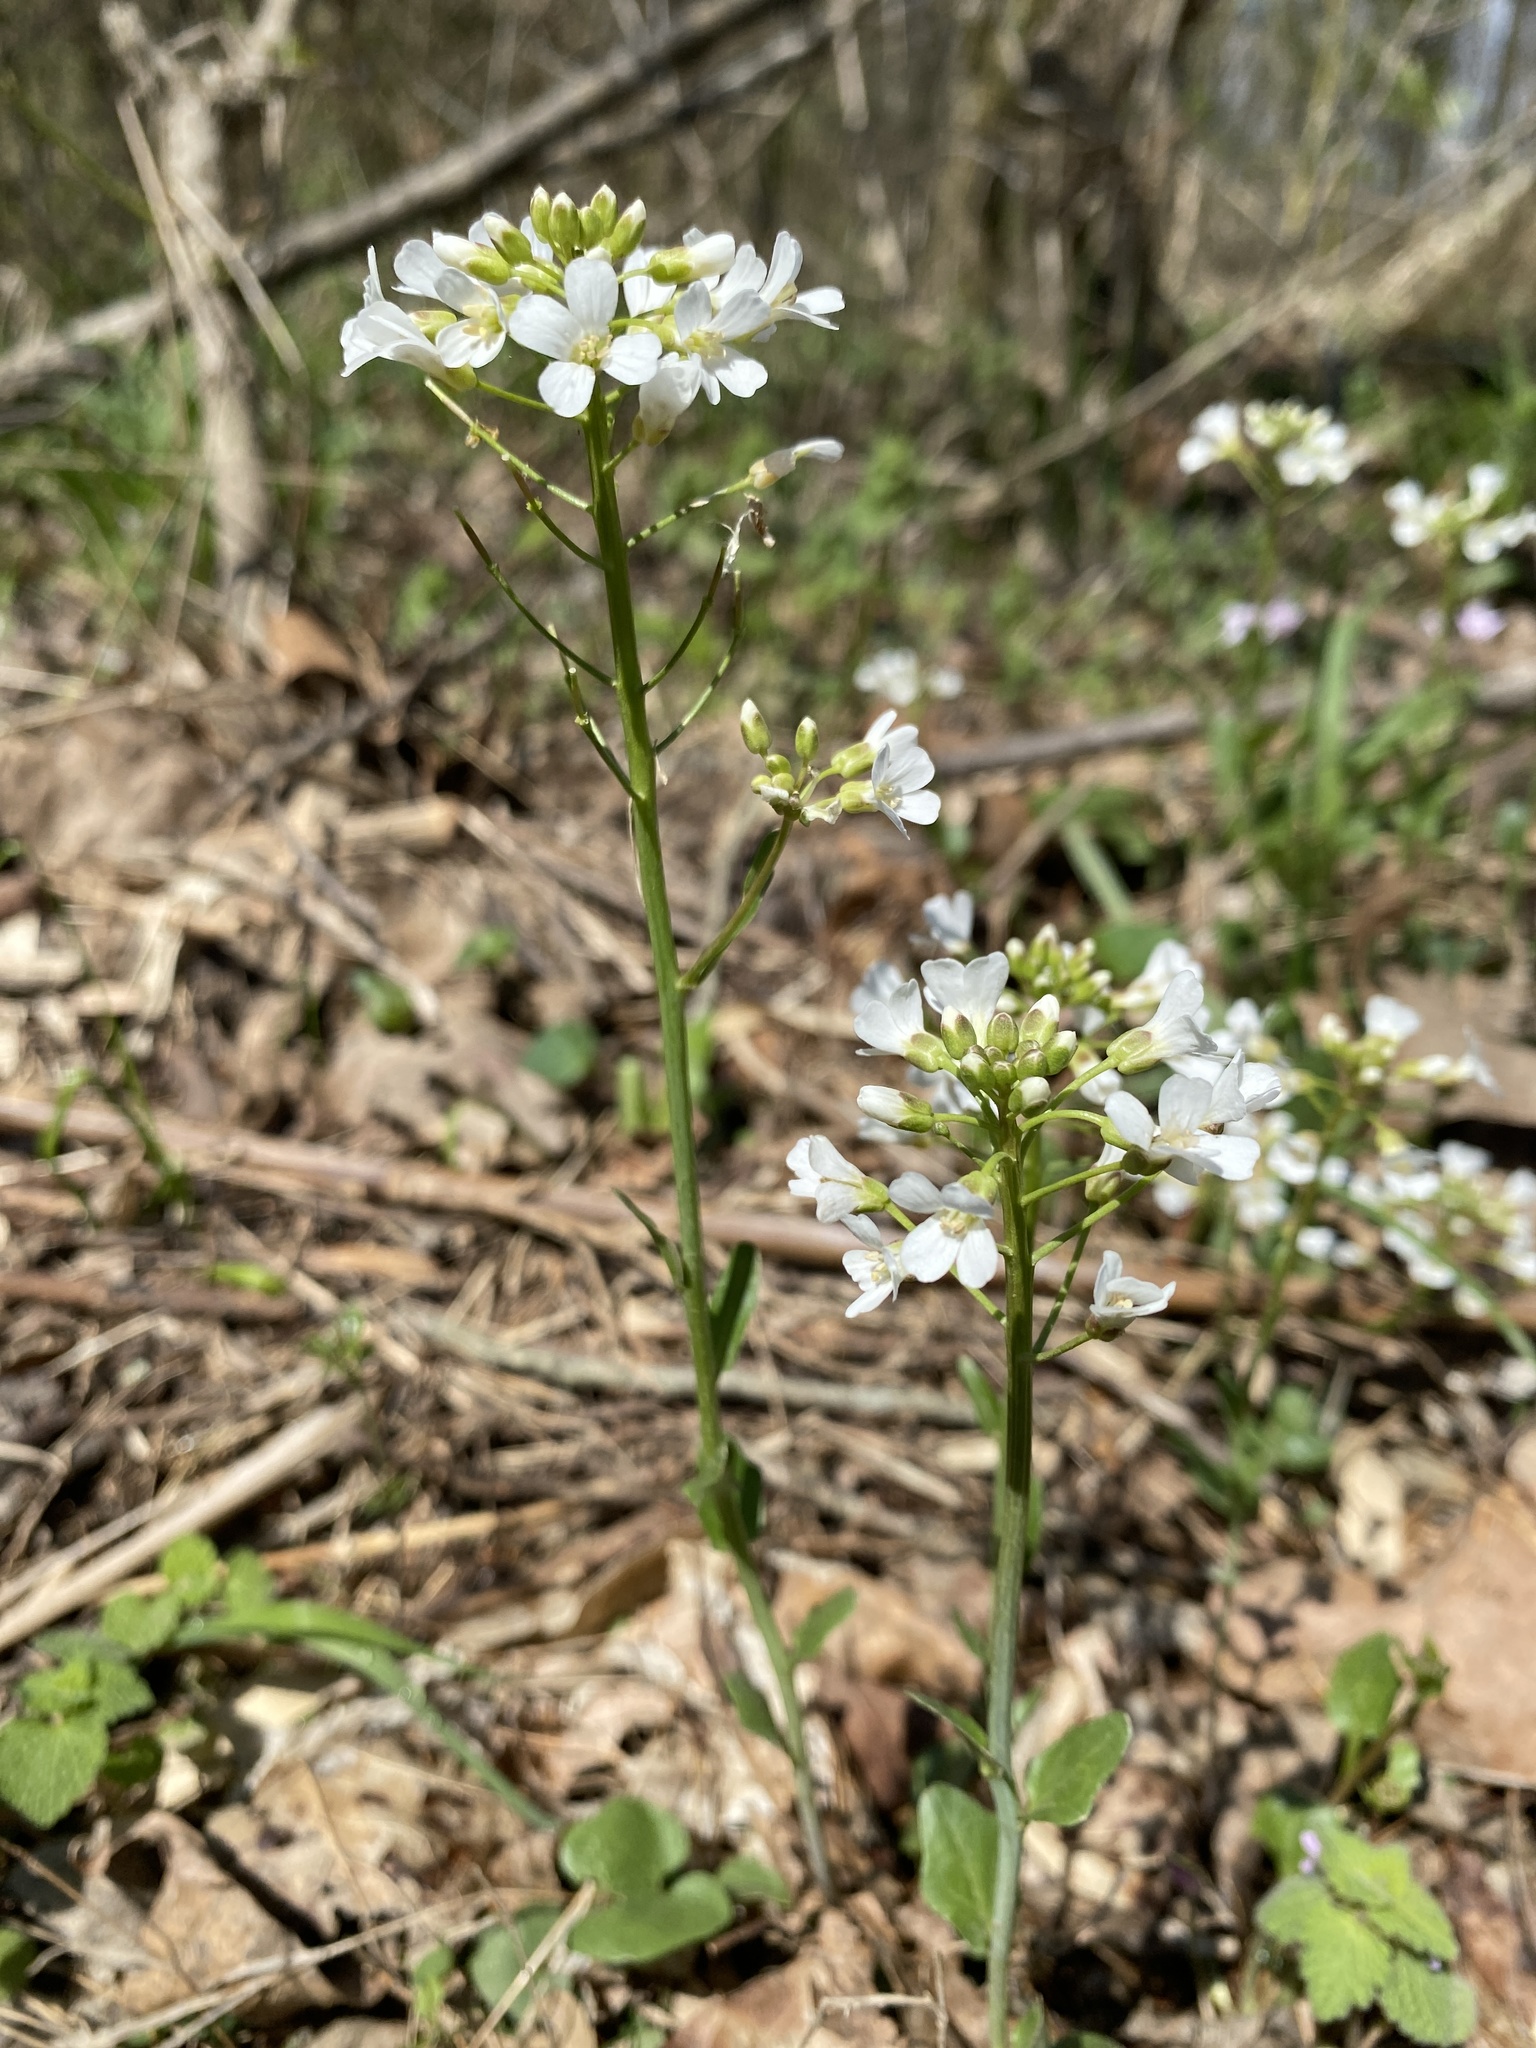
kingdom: Plantae
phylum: Tracheophyta
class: Magnoliopsida
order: Brassicales
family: Brassicaceae
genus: Cardamine
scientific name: Cardamine bulbosa
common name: Spring cress
